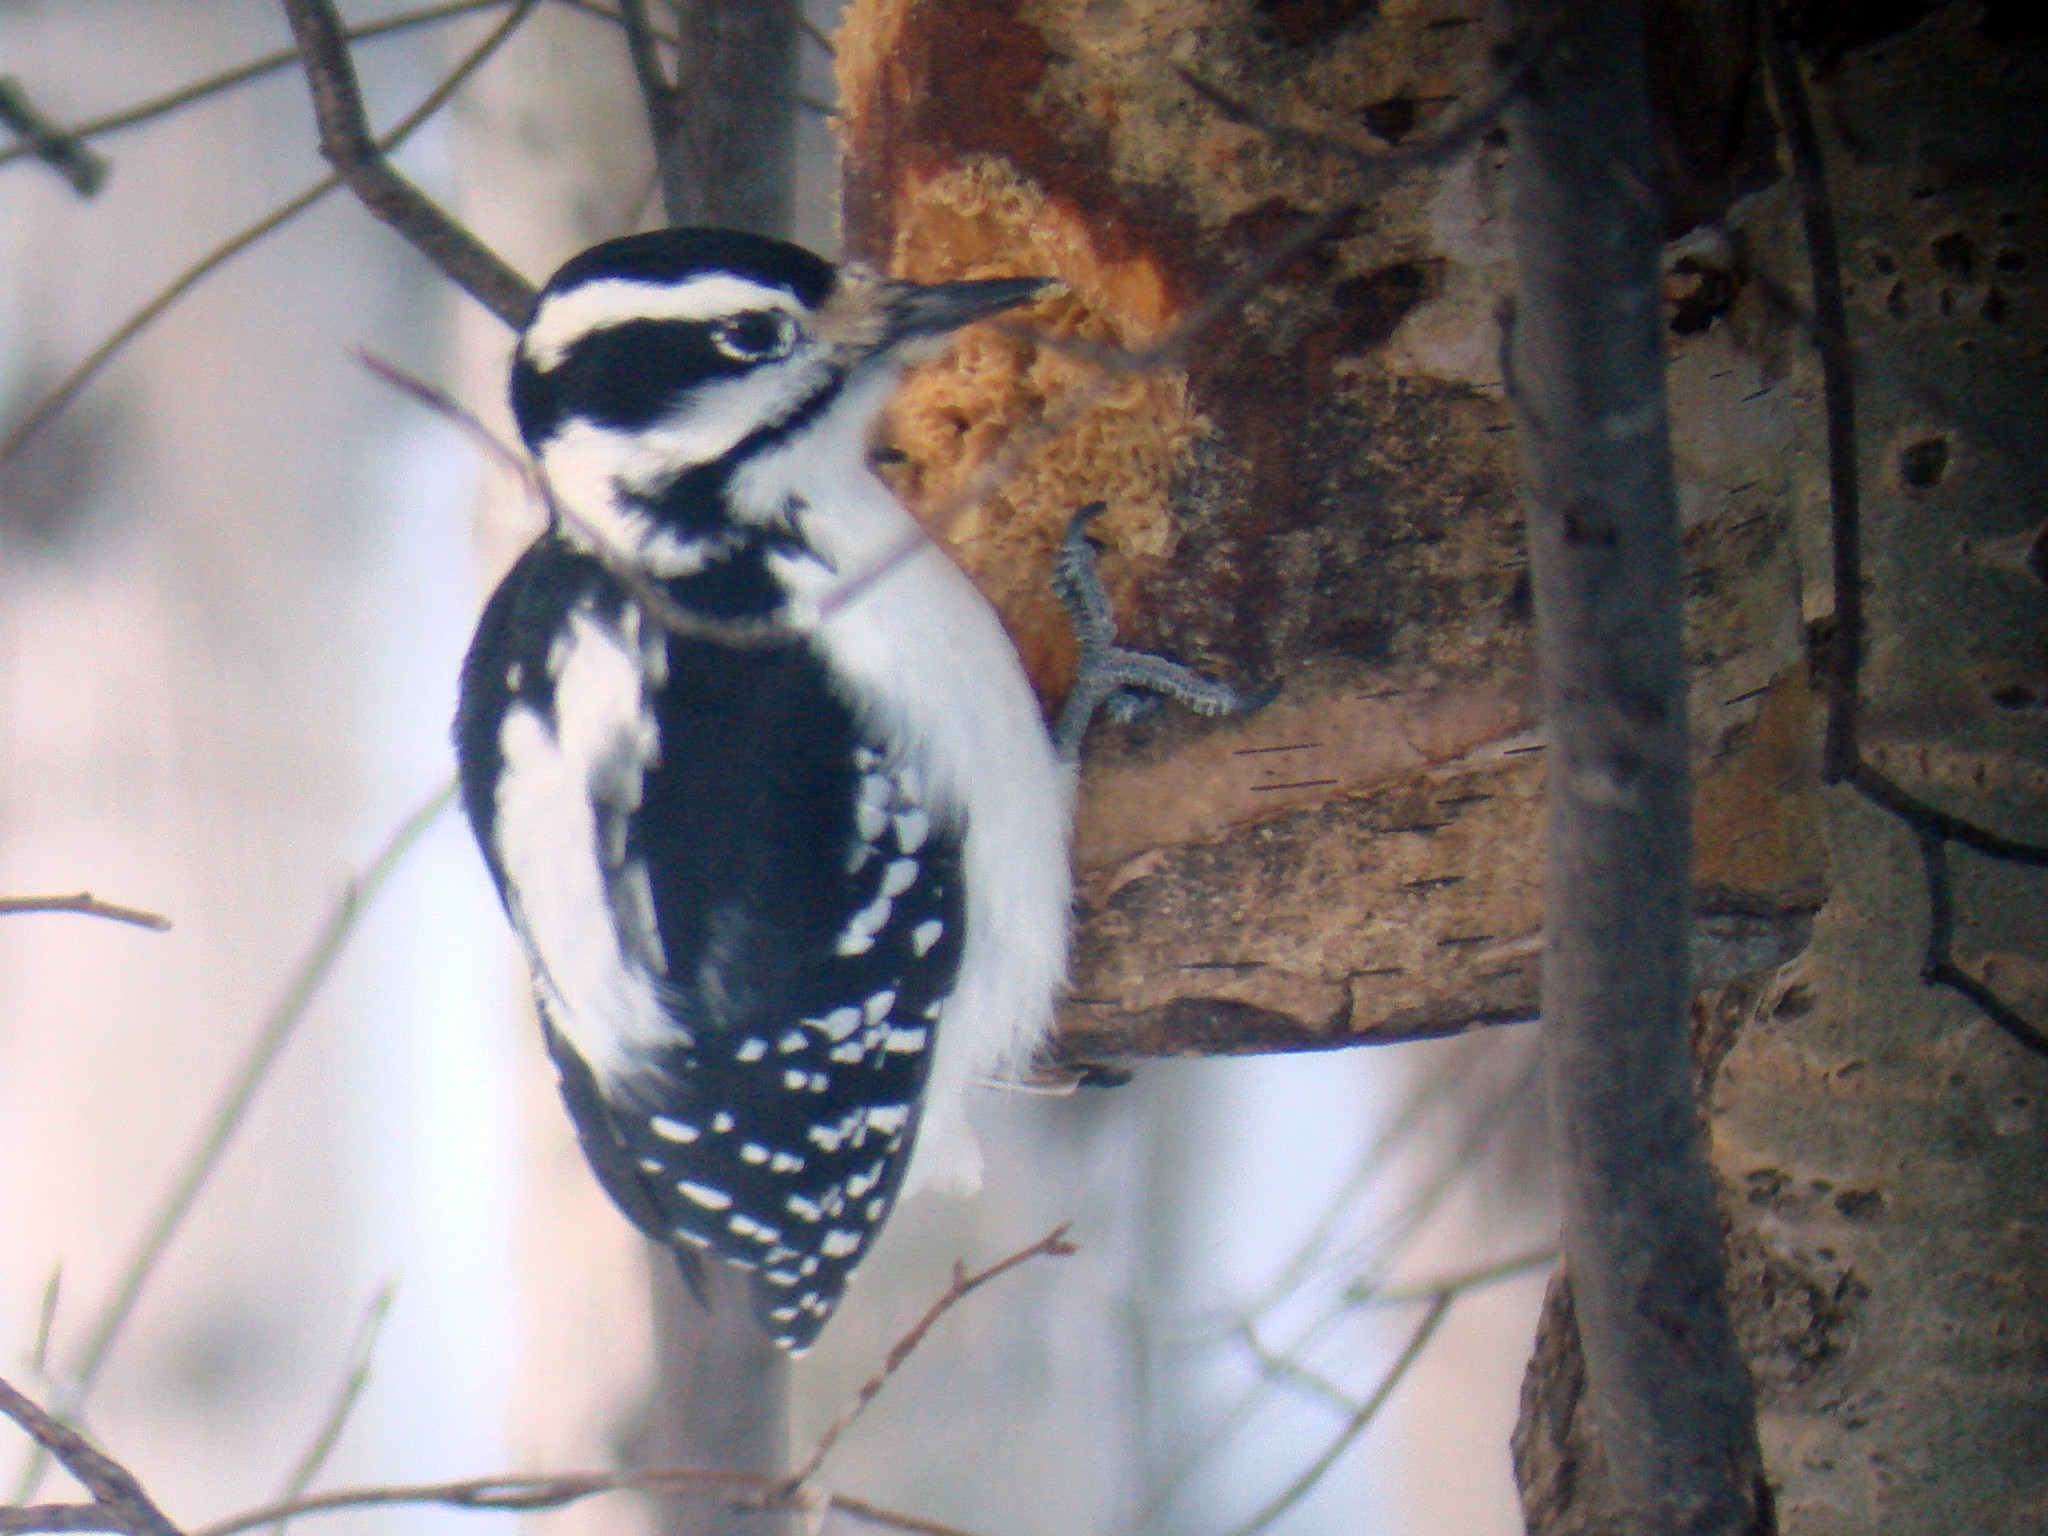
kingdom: Animalia
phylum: Chordata
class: Aves
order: Piciformes
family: Picidae
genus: Leuconotopicus
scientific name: Leuconotopicus villosus
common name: Hairy woodpecker
